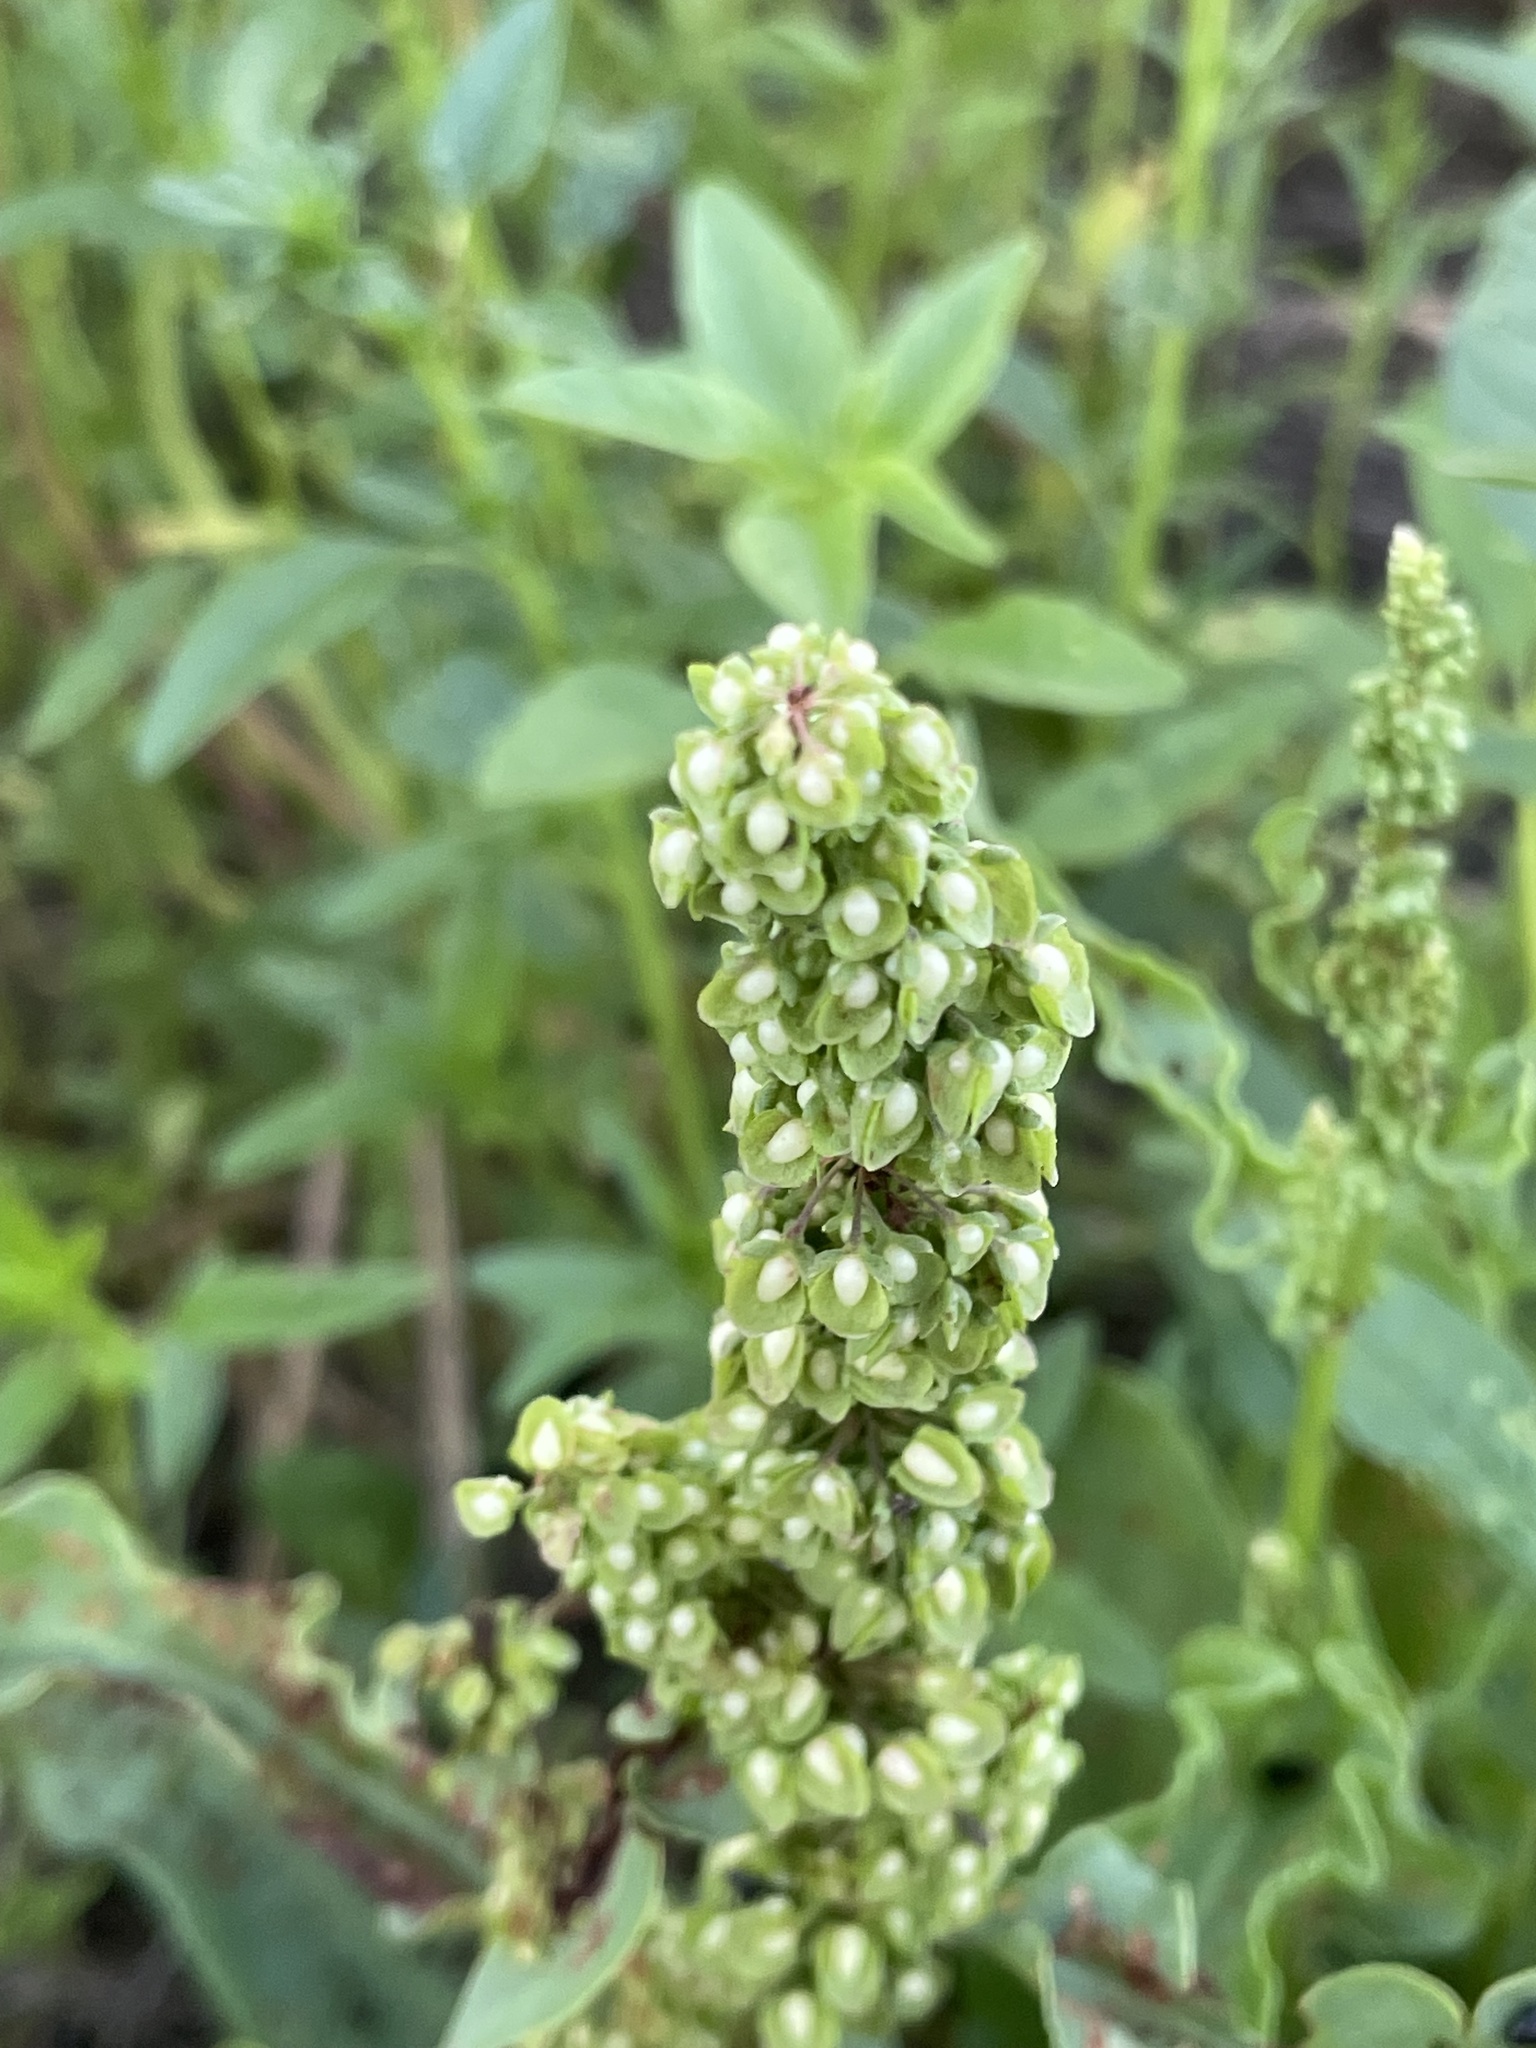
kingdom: Plantae
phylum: Tracheophyta
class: Magnoliopsida
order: Caryophyllales
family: Polygonaceae
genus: Rumex
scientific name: Rumex crispus
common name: Curled dock
